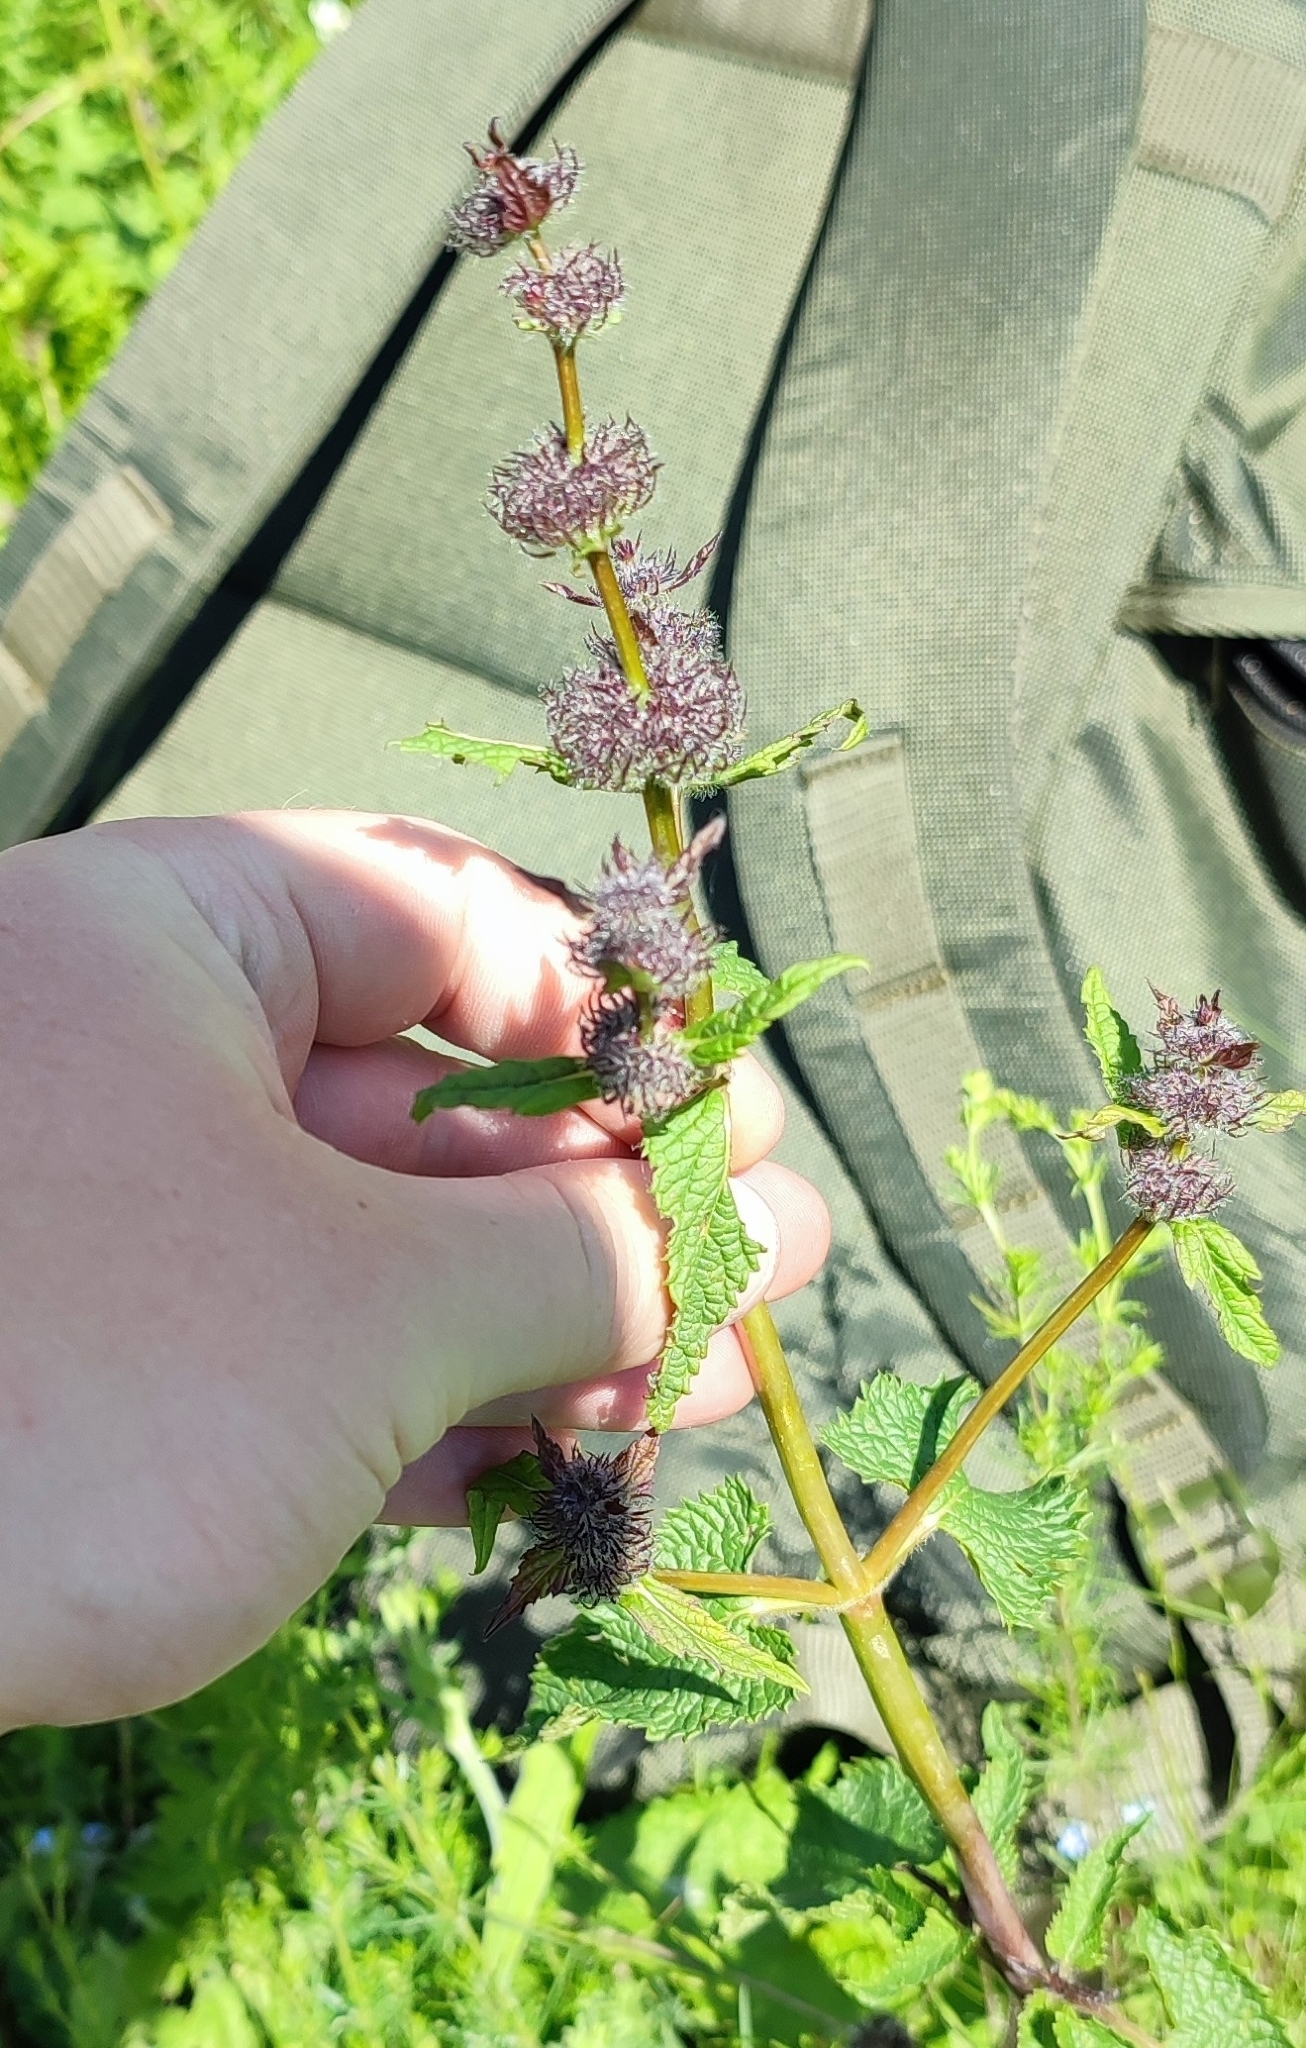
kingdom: Plantae
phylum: Tracheophyta
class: Magnoliopsida
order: Lamiales
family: Lamiaceae
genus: Phlomoides
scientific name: Phlomoides tuberosa
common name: Tuberous jerusalem sage
